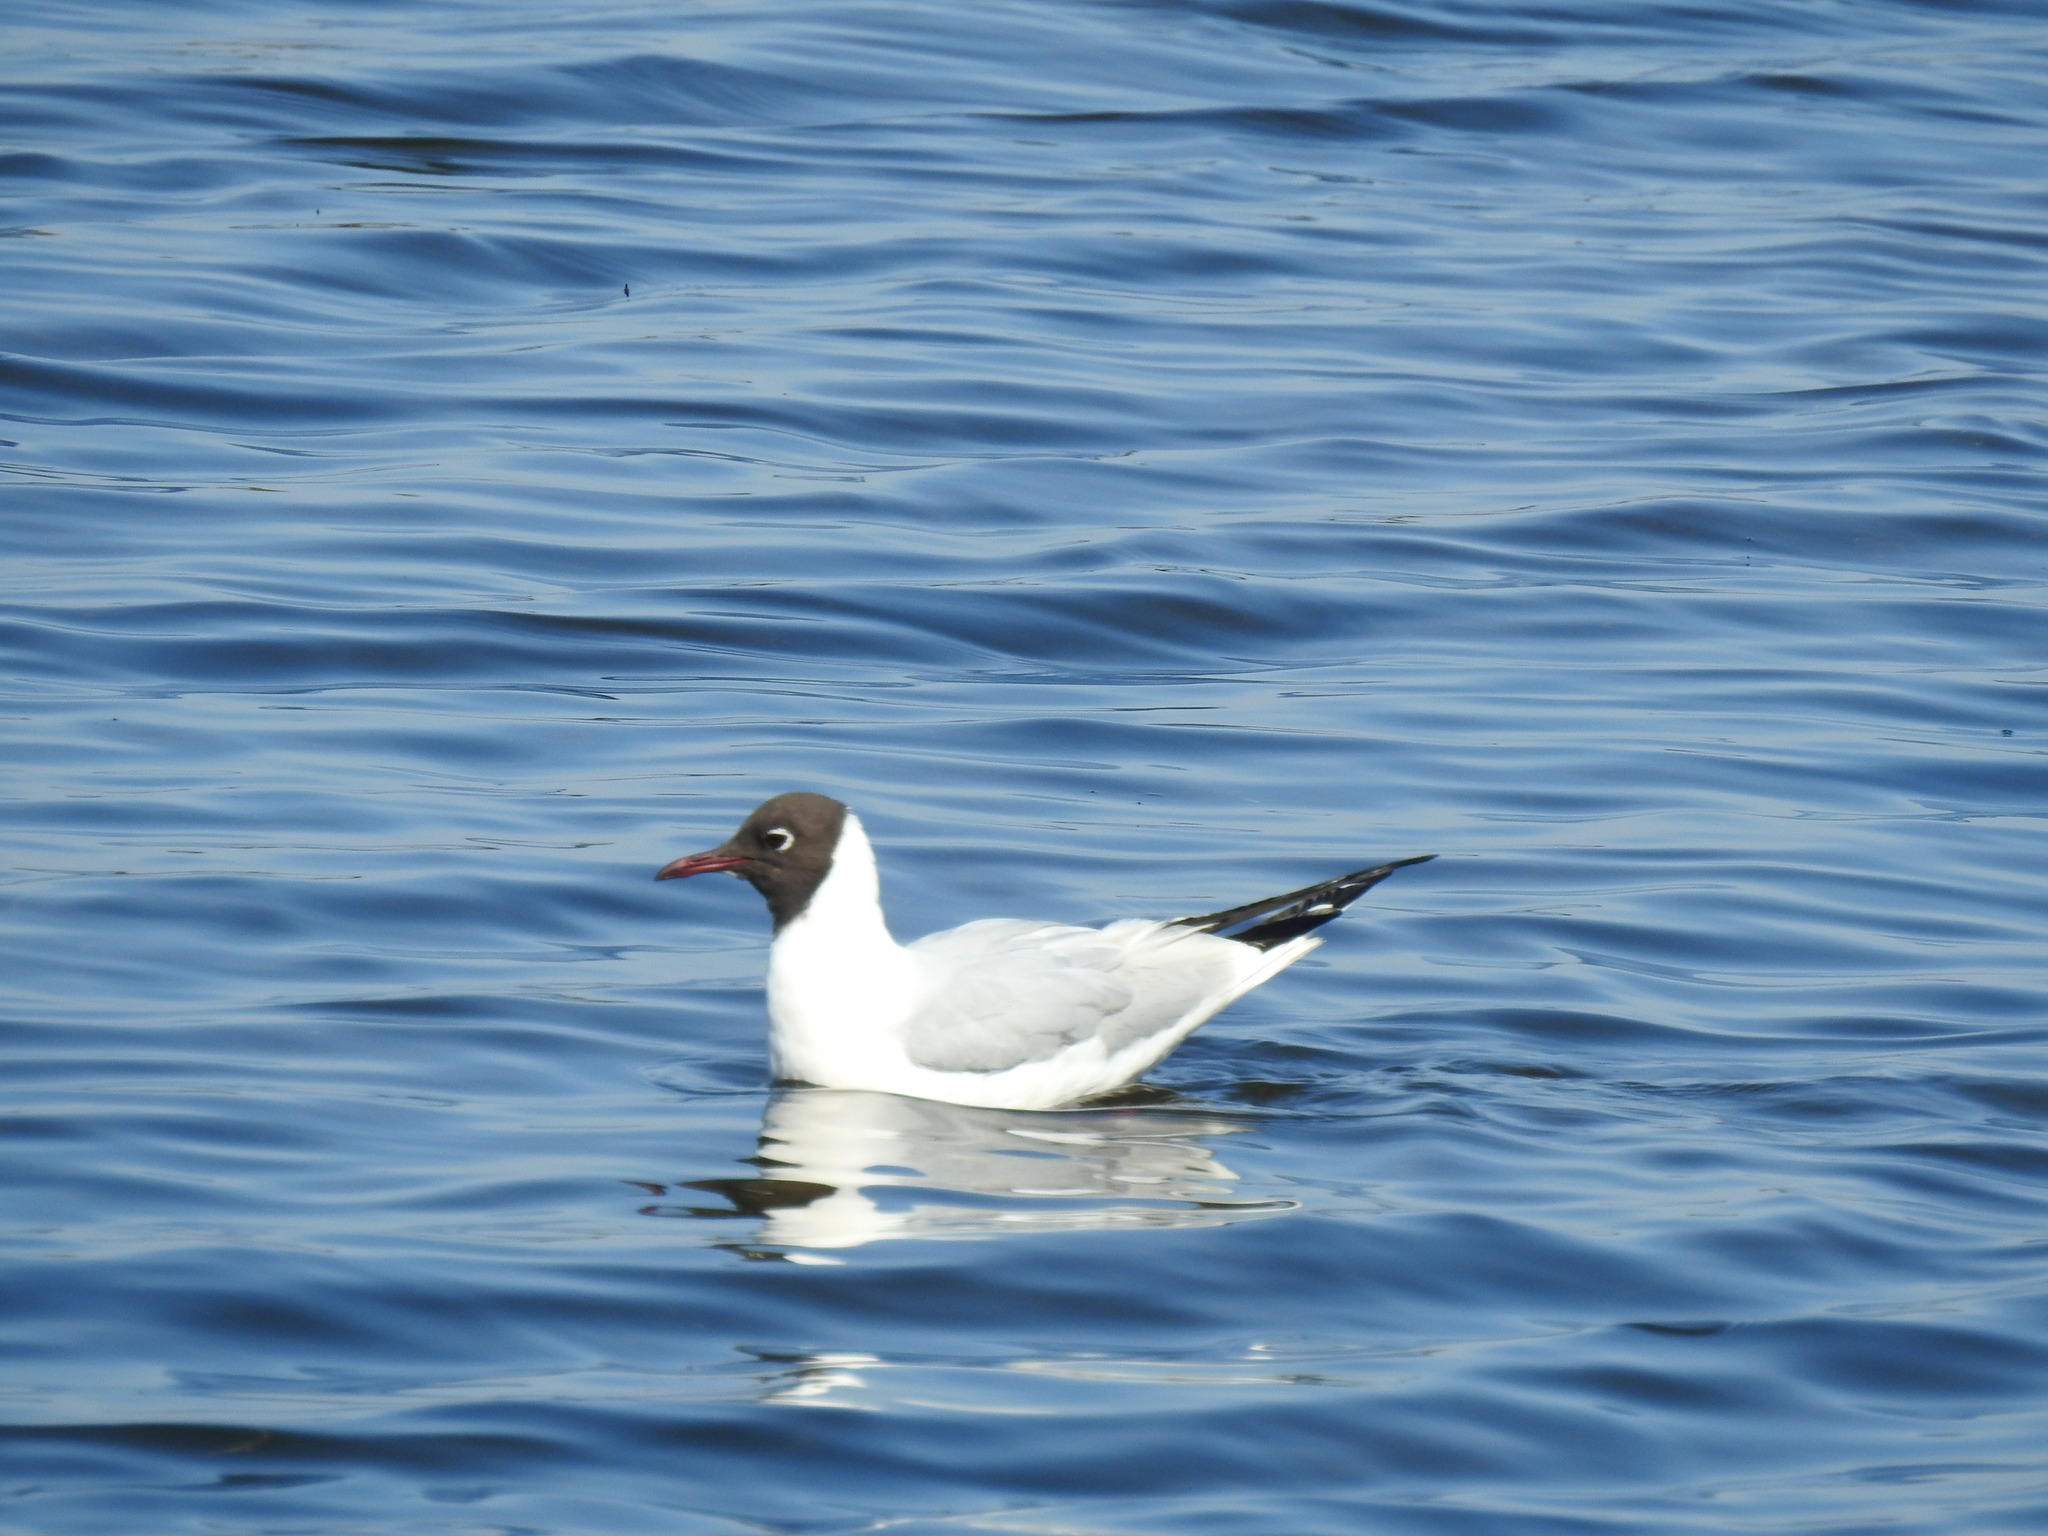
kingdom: Animalia
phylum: Chordata
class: Aves
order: Charadriiformes
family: Laridae
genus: Chroicocephalus
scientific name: Chroicocephalus ridibundus
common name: Black-headed gull
